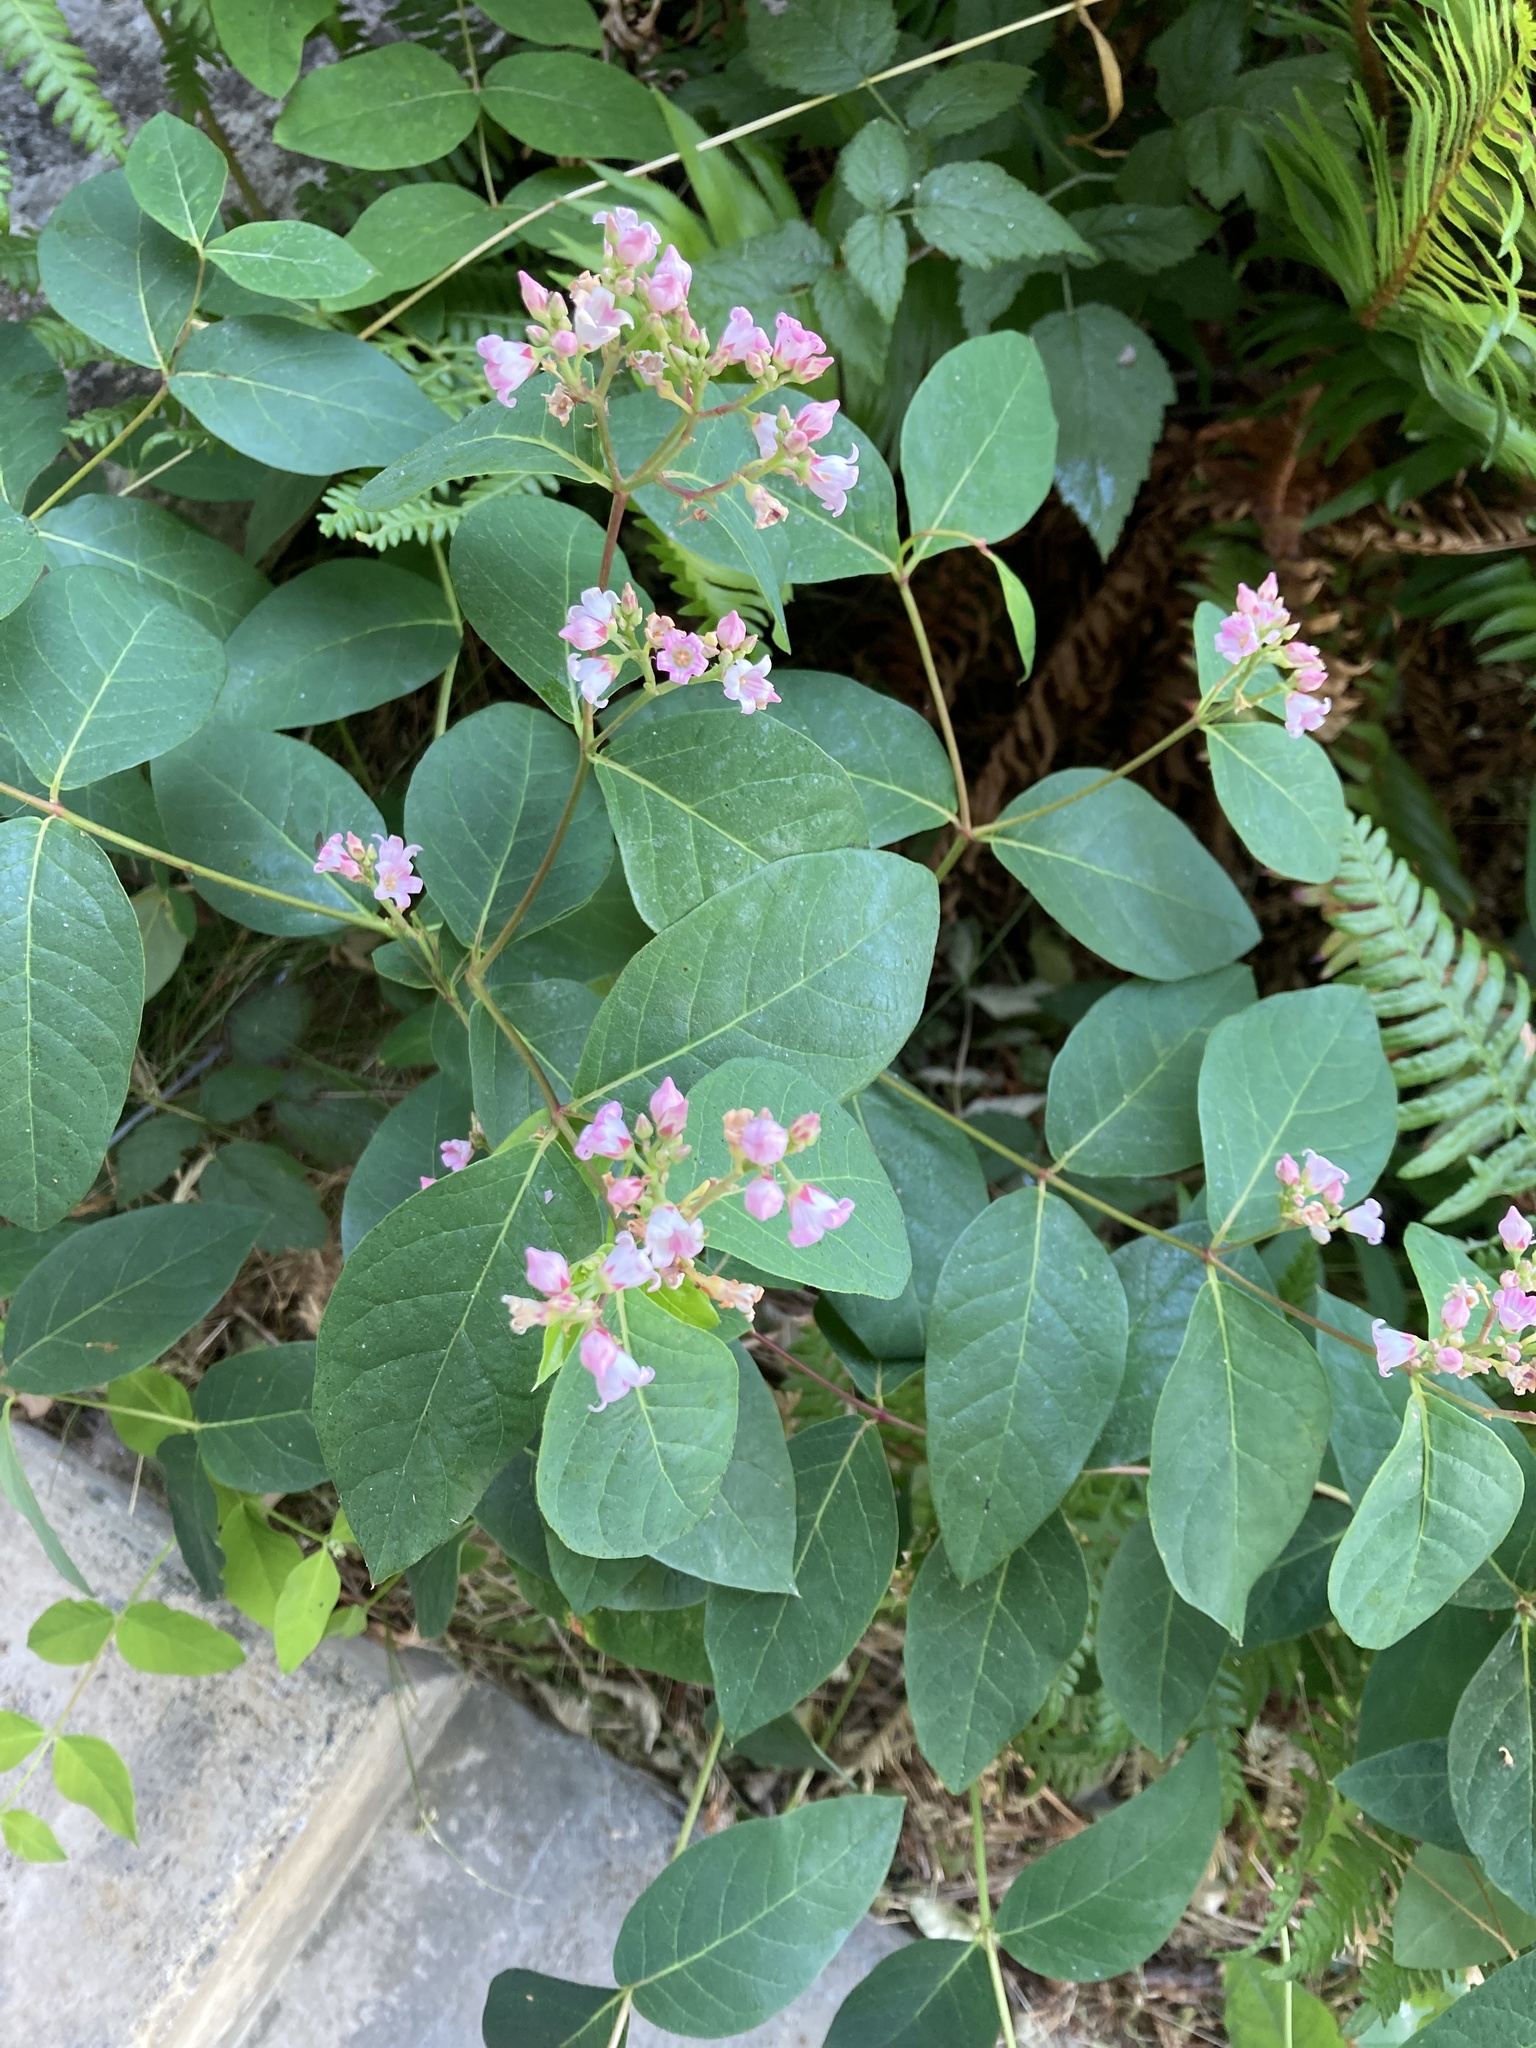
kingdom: Plantae
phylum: Tracheophyta
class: Magnoliopsida
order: Gentianales
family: Apocynaceae
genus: Apocynum
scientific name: Apocynum androsaemifolium
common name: Spreading dogbane
